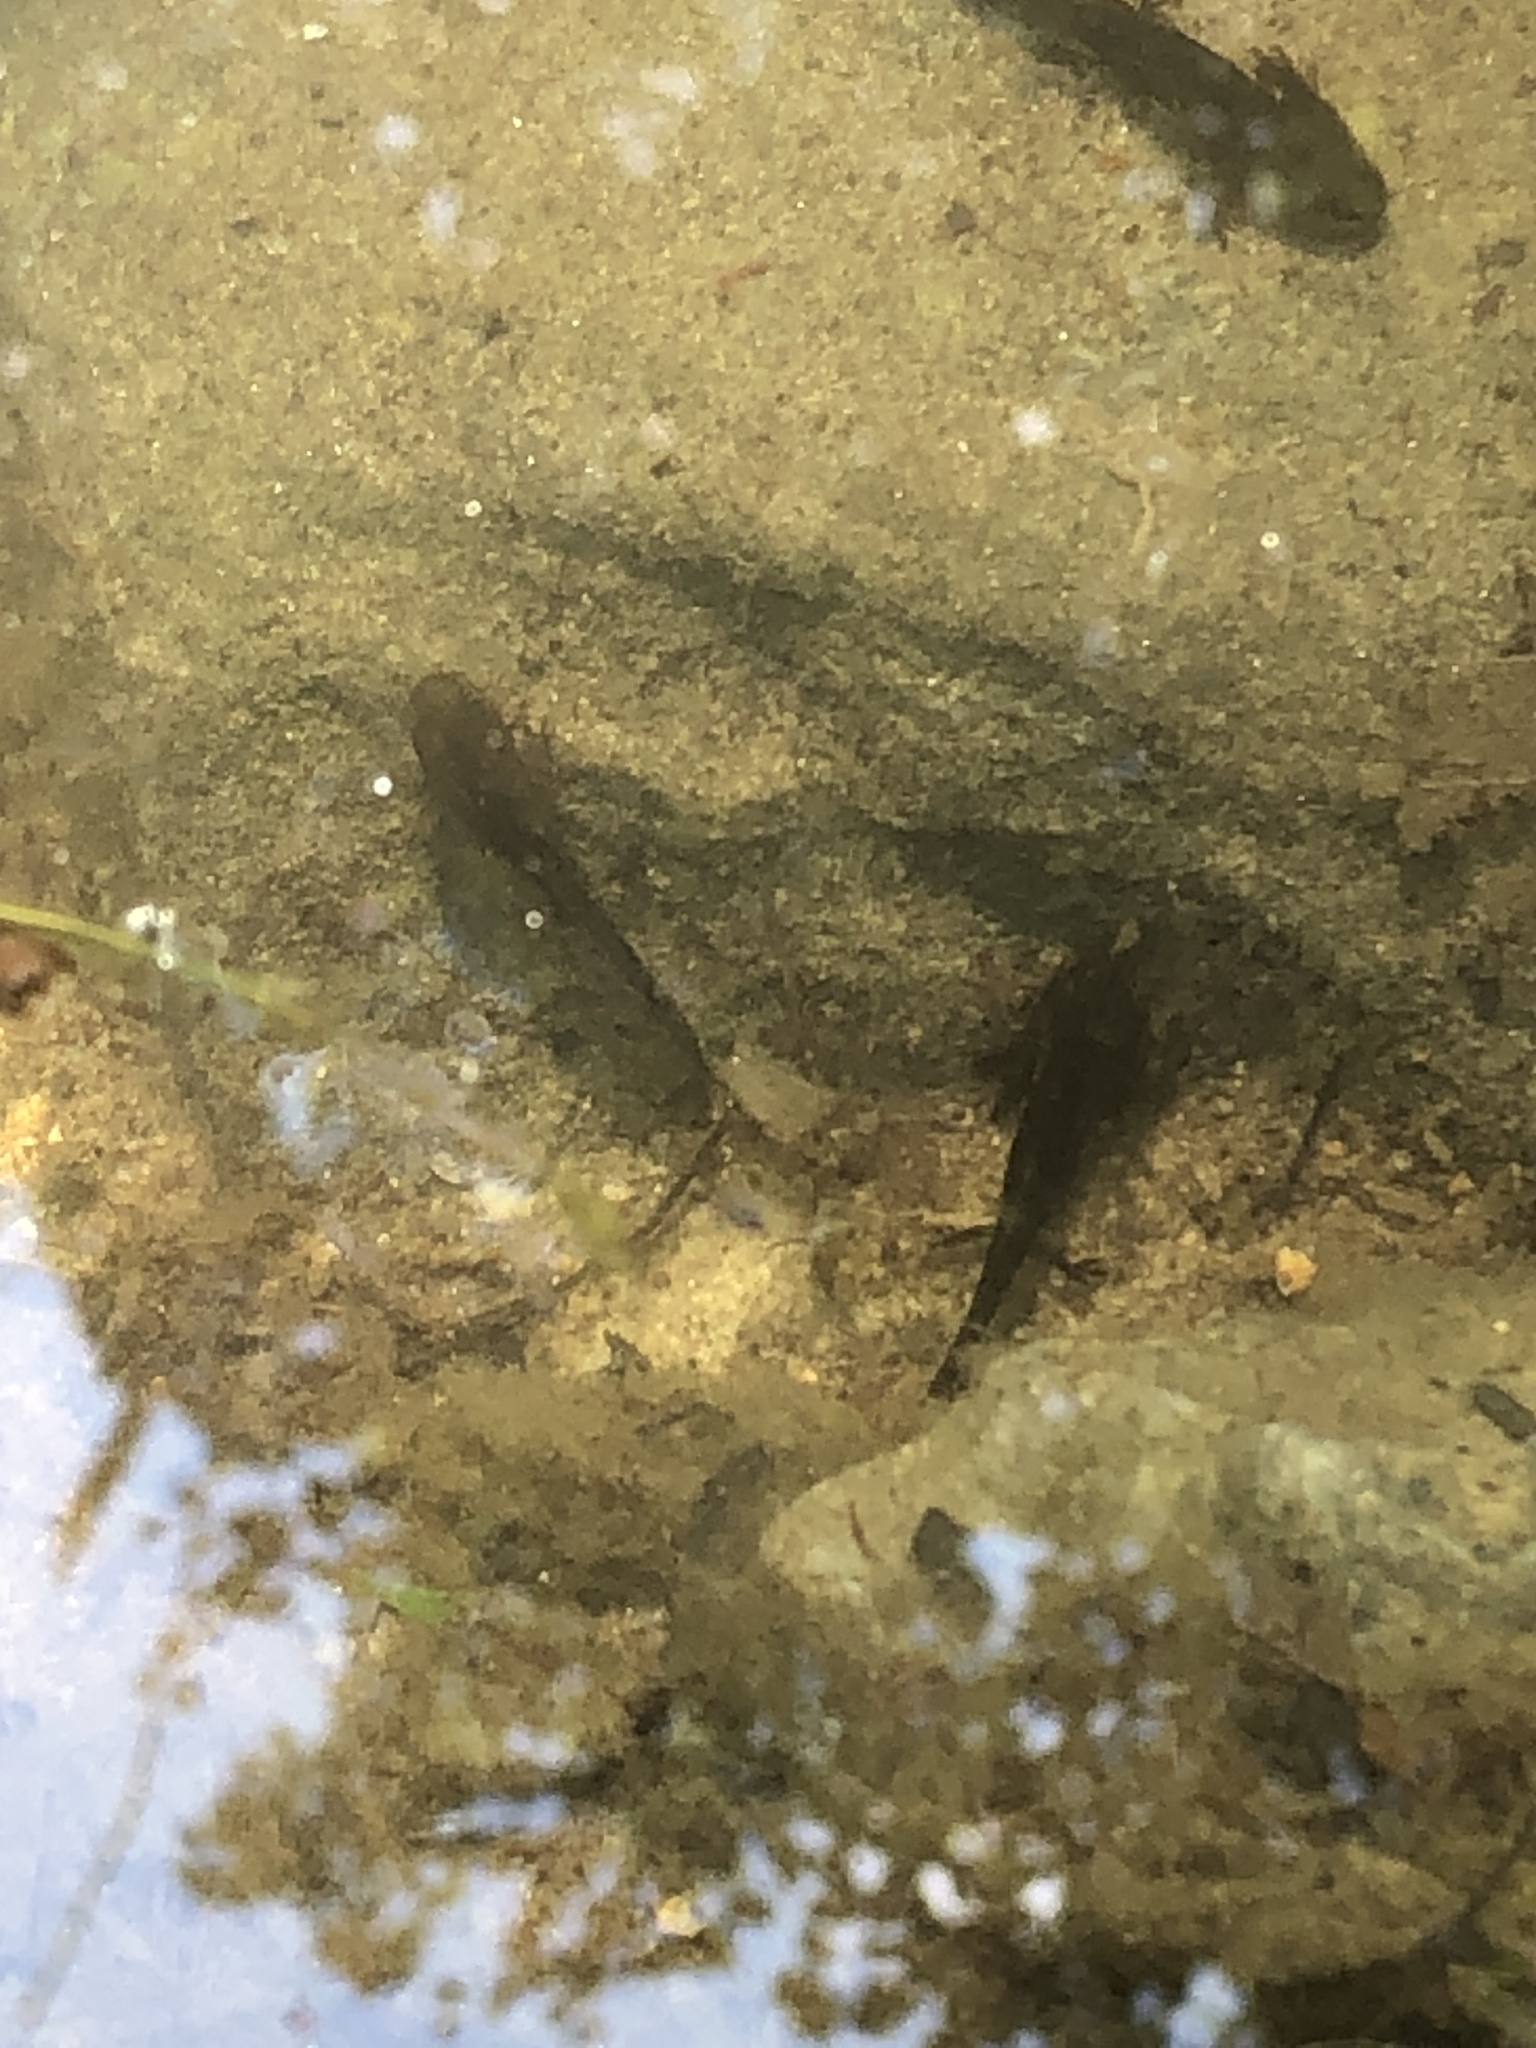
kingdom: Animalia
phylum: Chordata
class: Amphibia
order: Caudata
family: Ambystomatidae
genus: Ambystoma
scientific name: Ambystoma opacum
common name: Marbled salamander
